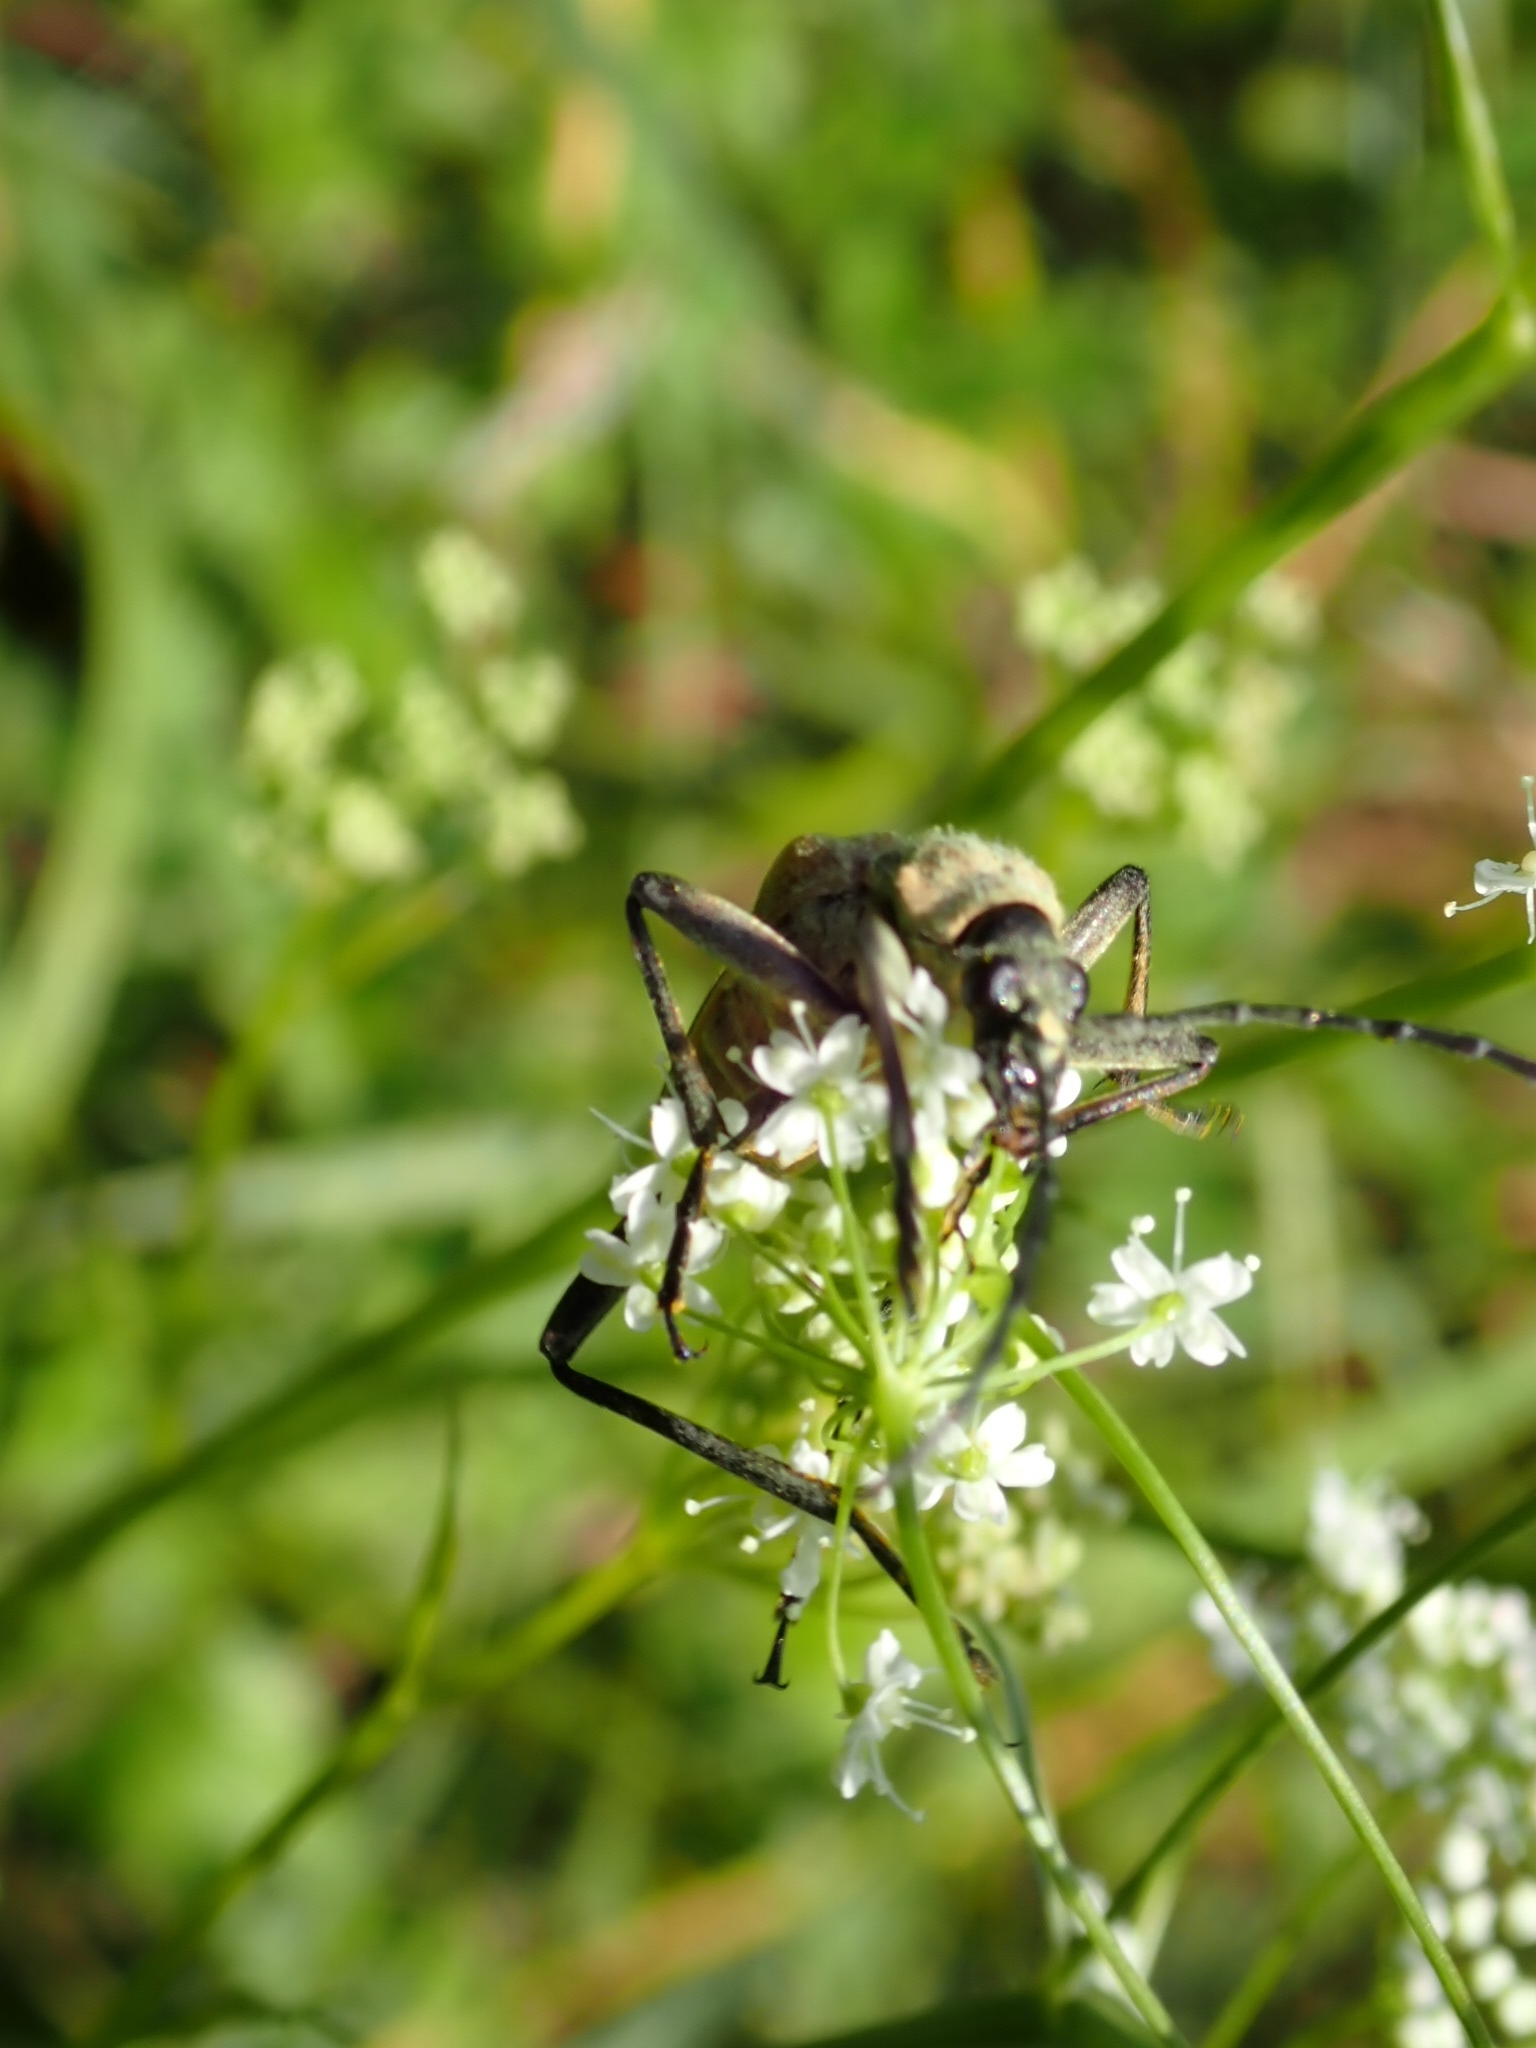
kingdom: Animalia
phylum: Arthropoda
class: Insecta
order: Coleoptera
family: Cerambycidae
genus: Pachyta
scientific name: Pachyta quadrimaculata
